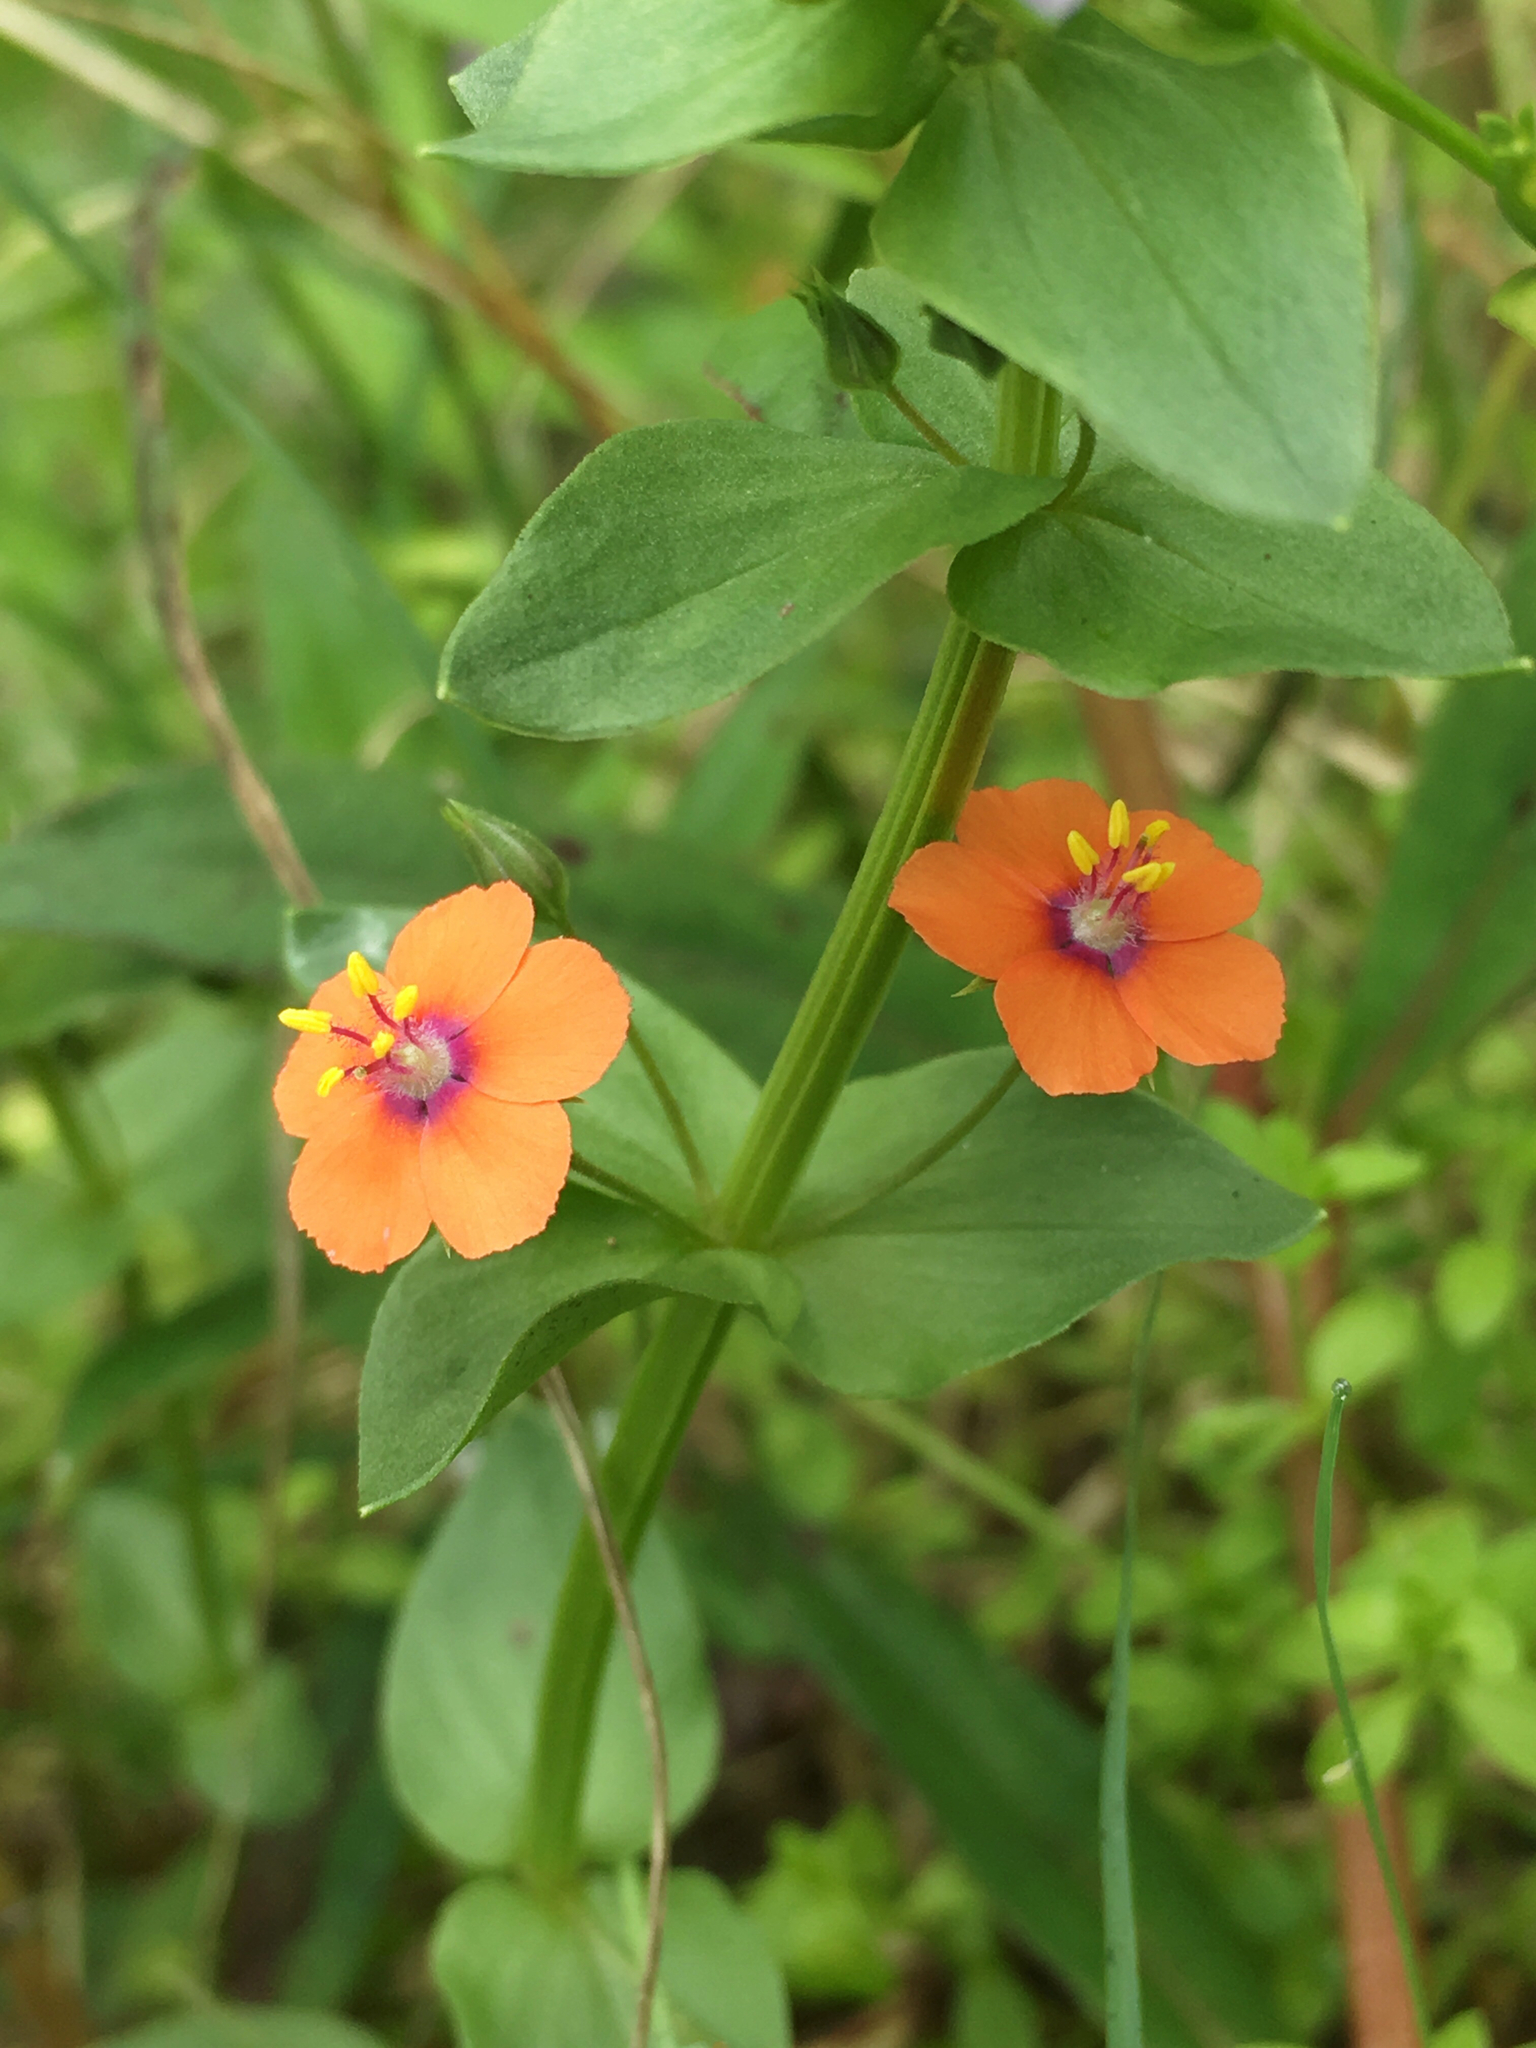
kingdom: Plantae
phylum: Tracheophyta
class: Magnoliopsida
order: Ericales
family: Primulaceae
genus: Lysimachia
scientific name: Lysimachia arvensis
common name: Scarlet pimpernel
